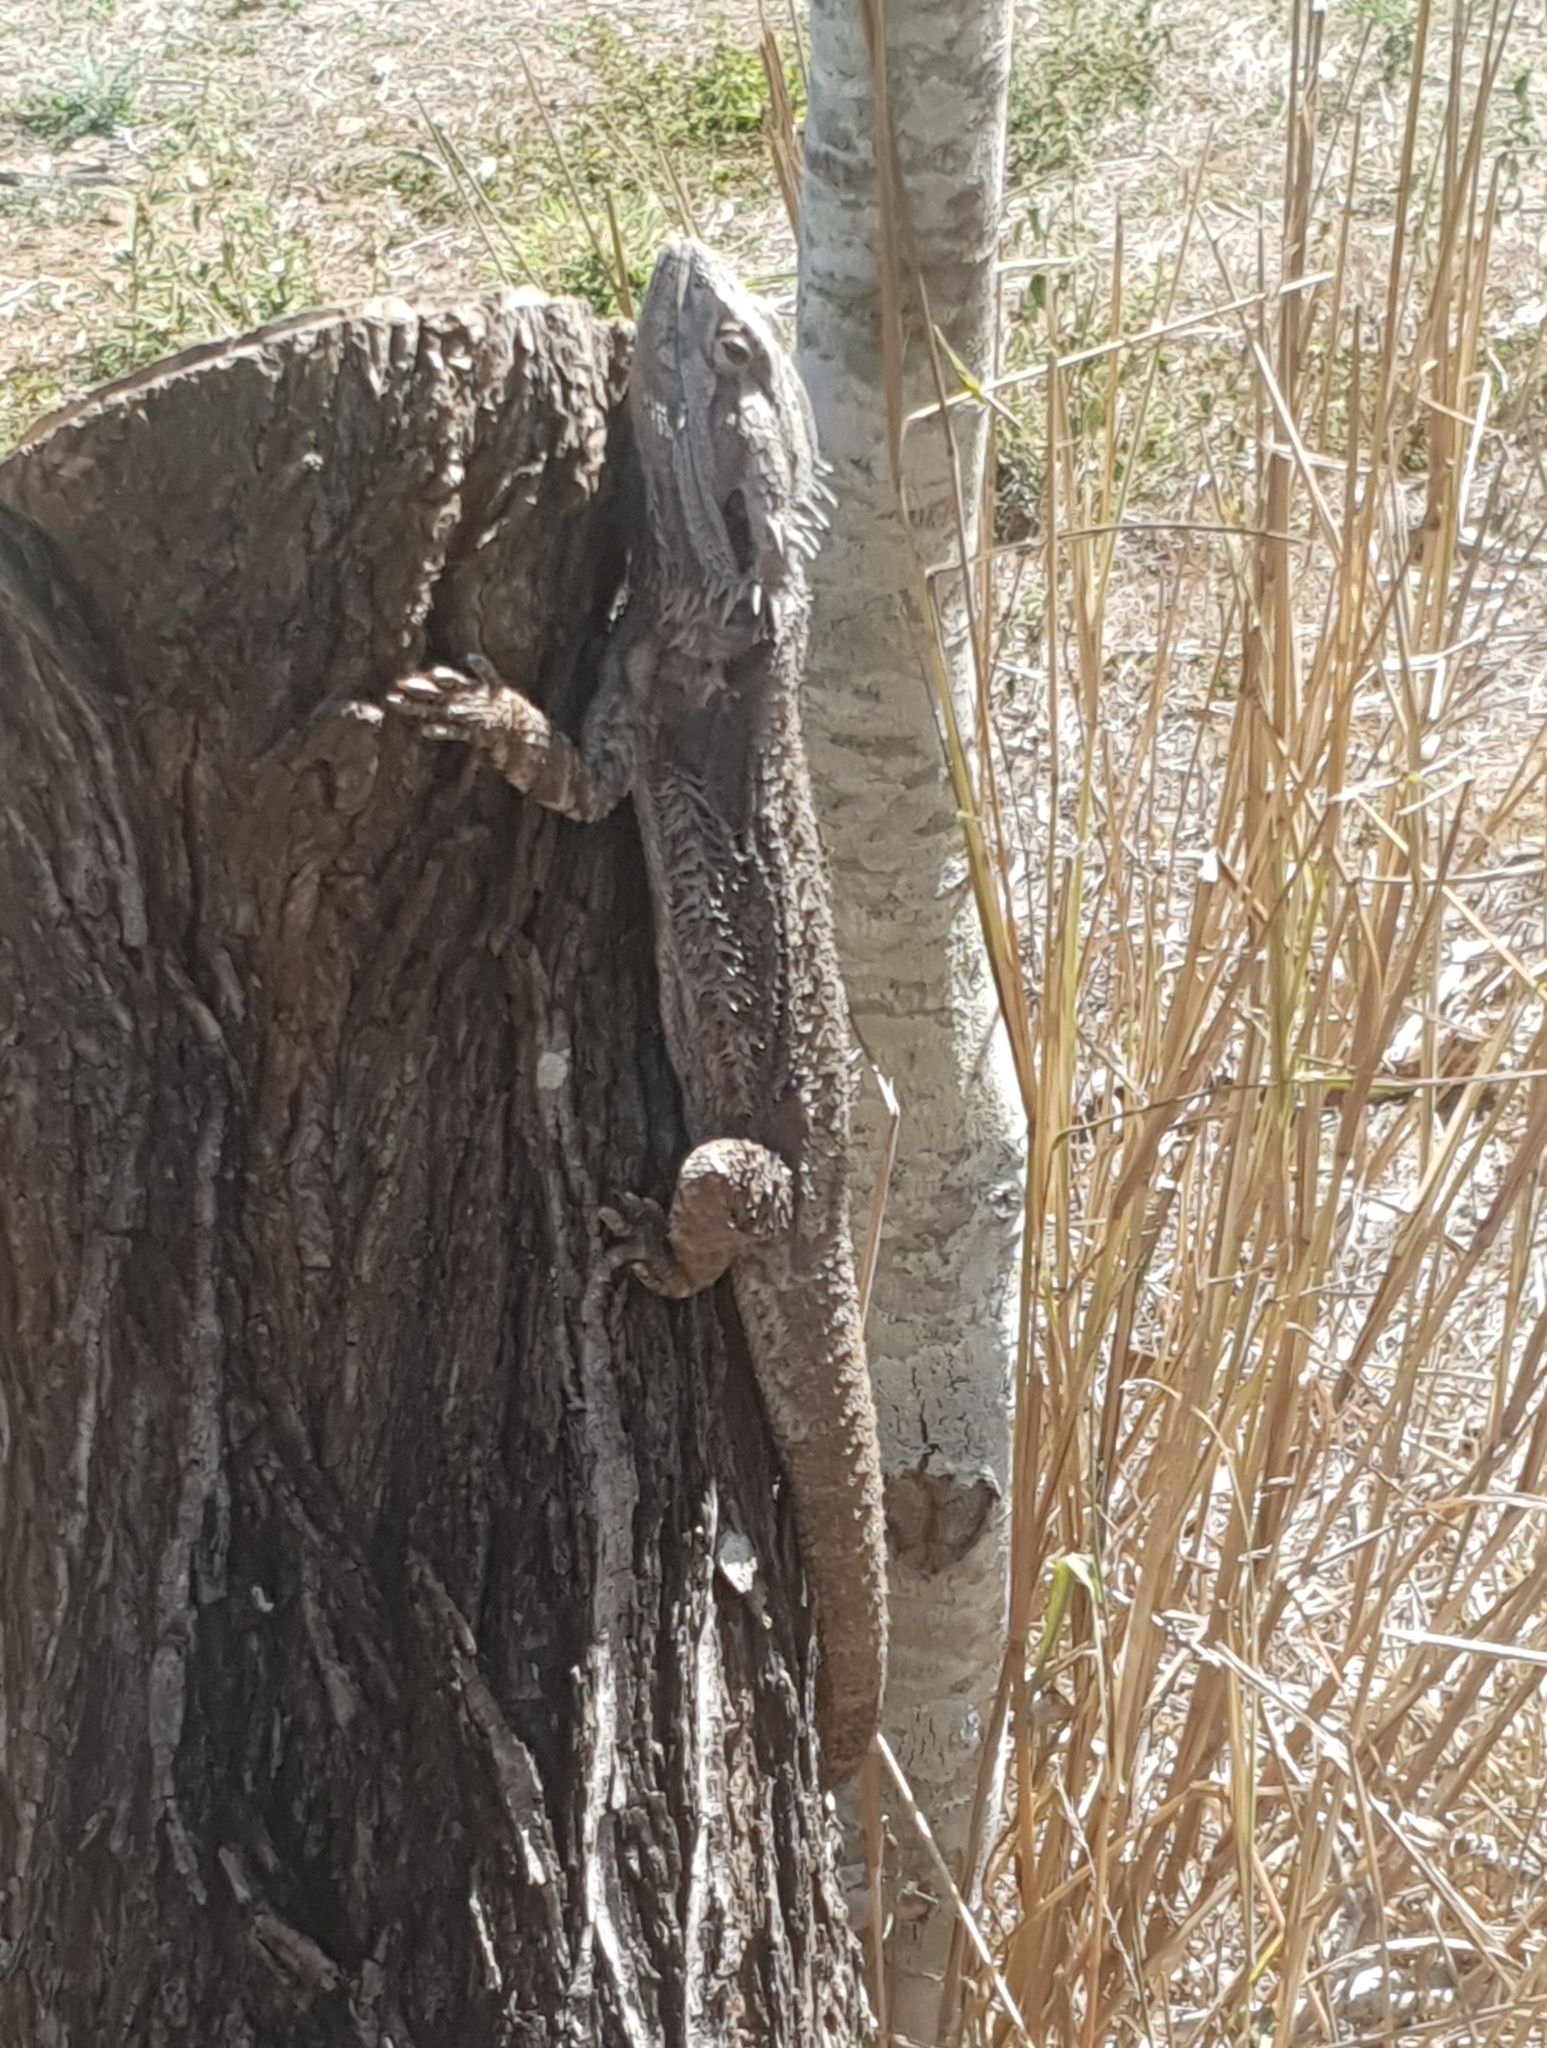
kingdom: Animalia
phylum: Chordata
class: Squamata
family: Agamidae
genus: Pogona
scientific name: Pogona barbata
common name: Bearded dragon
